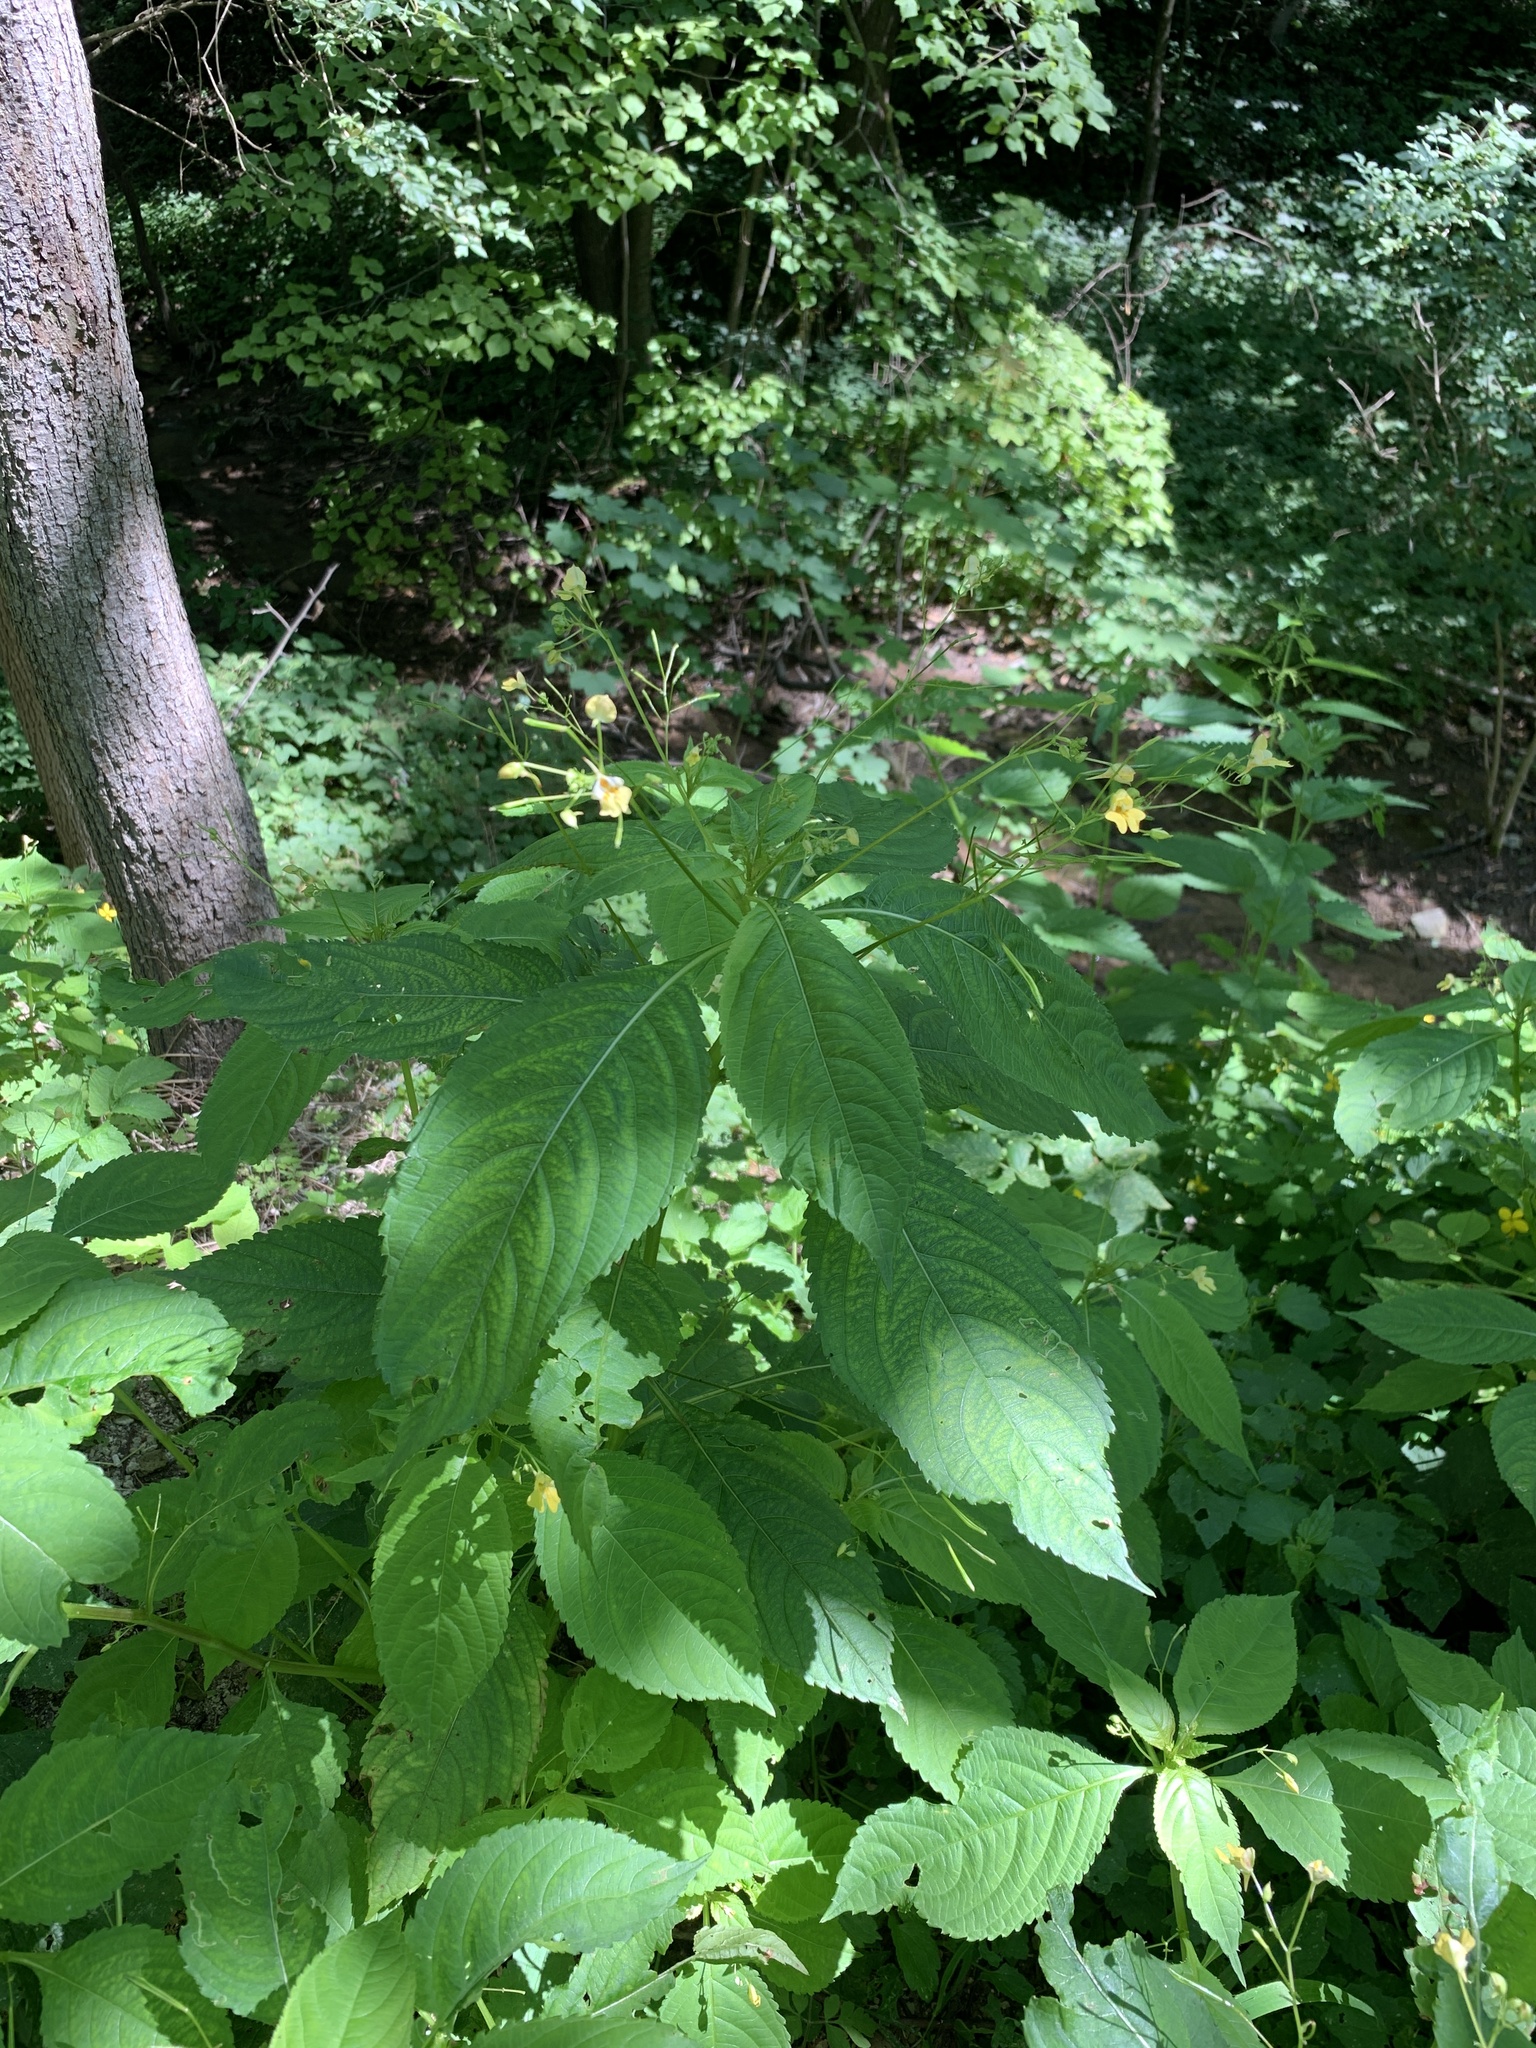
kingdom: Plantae
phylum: Tracheophyta
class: Magnoliopsida
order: Ericales
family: Balsaminaceae
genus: Impatiens
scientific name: Impatiens parviflora
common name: Small balsam
